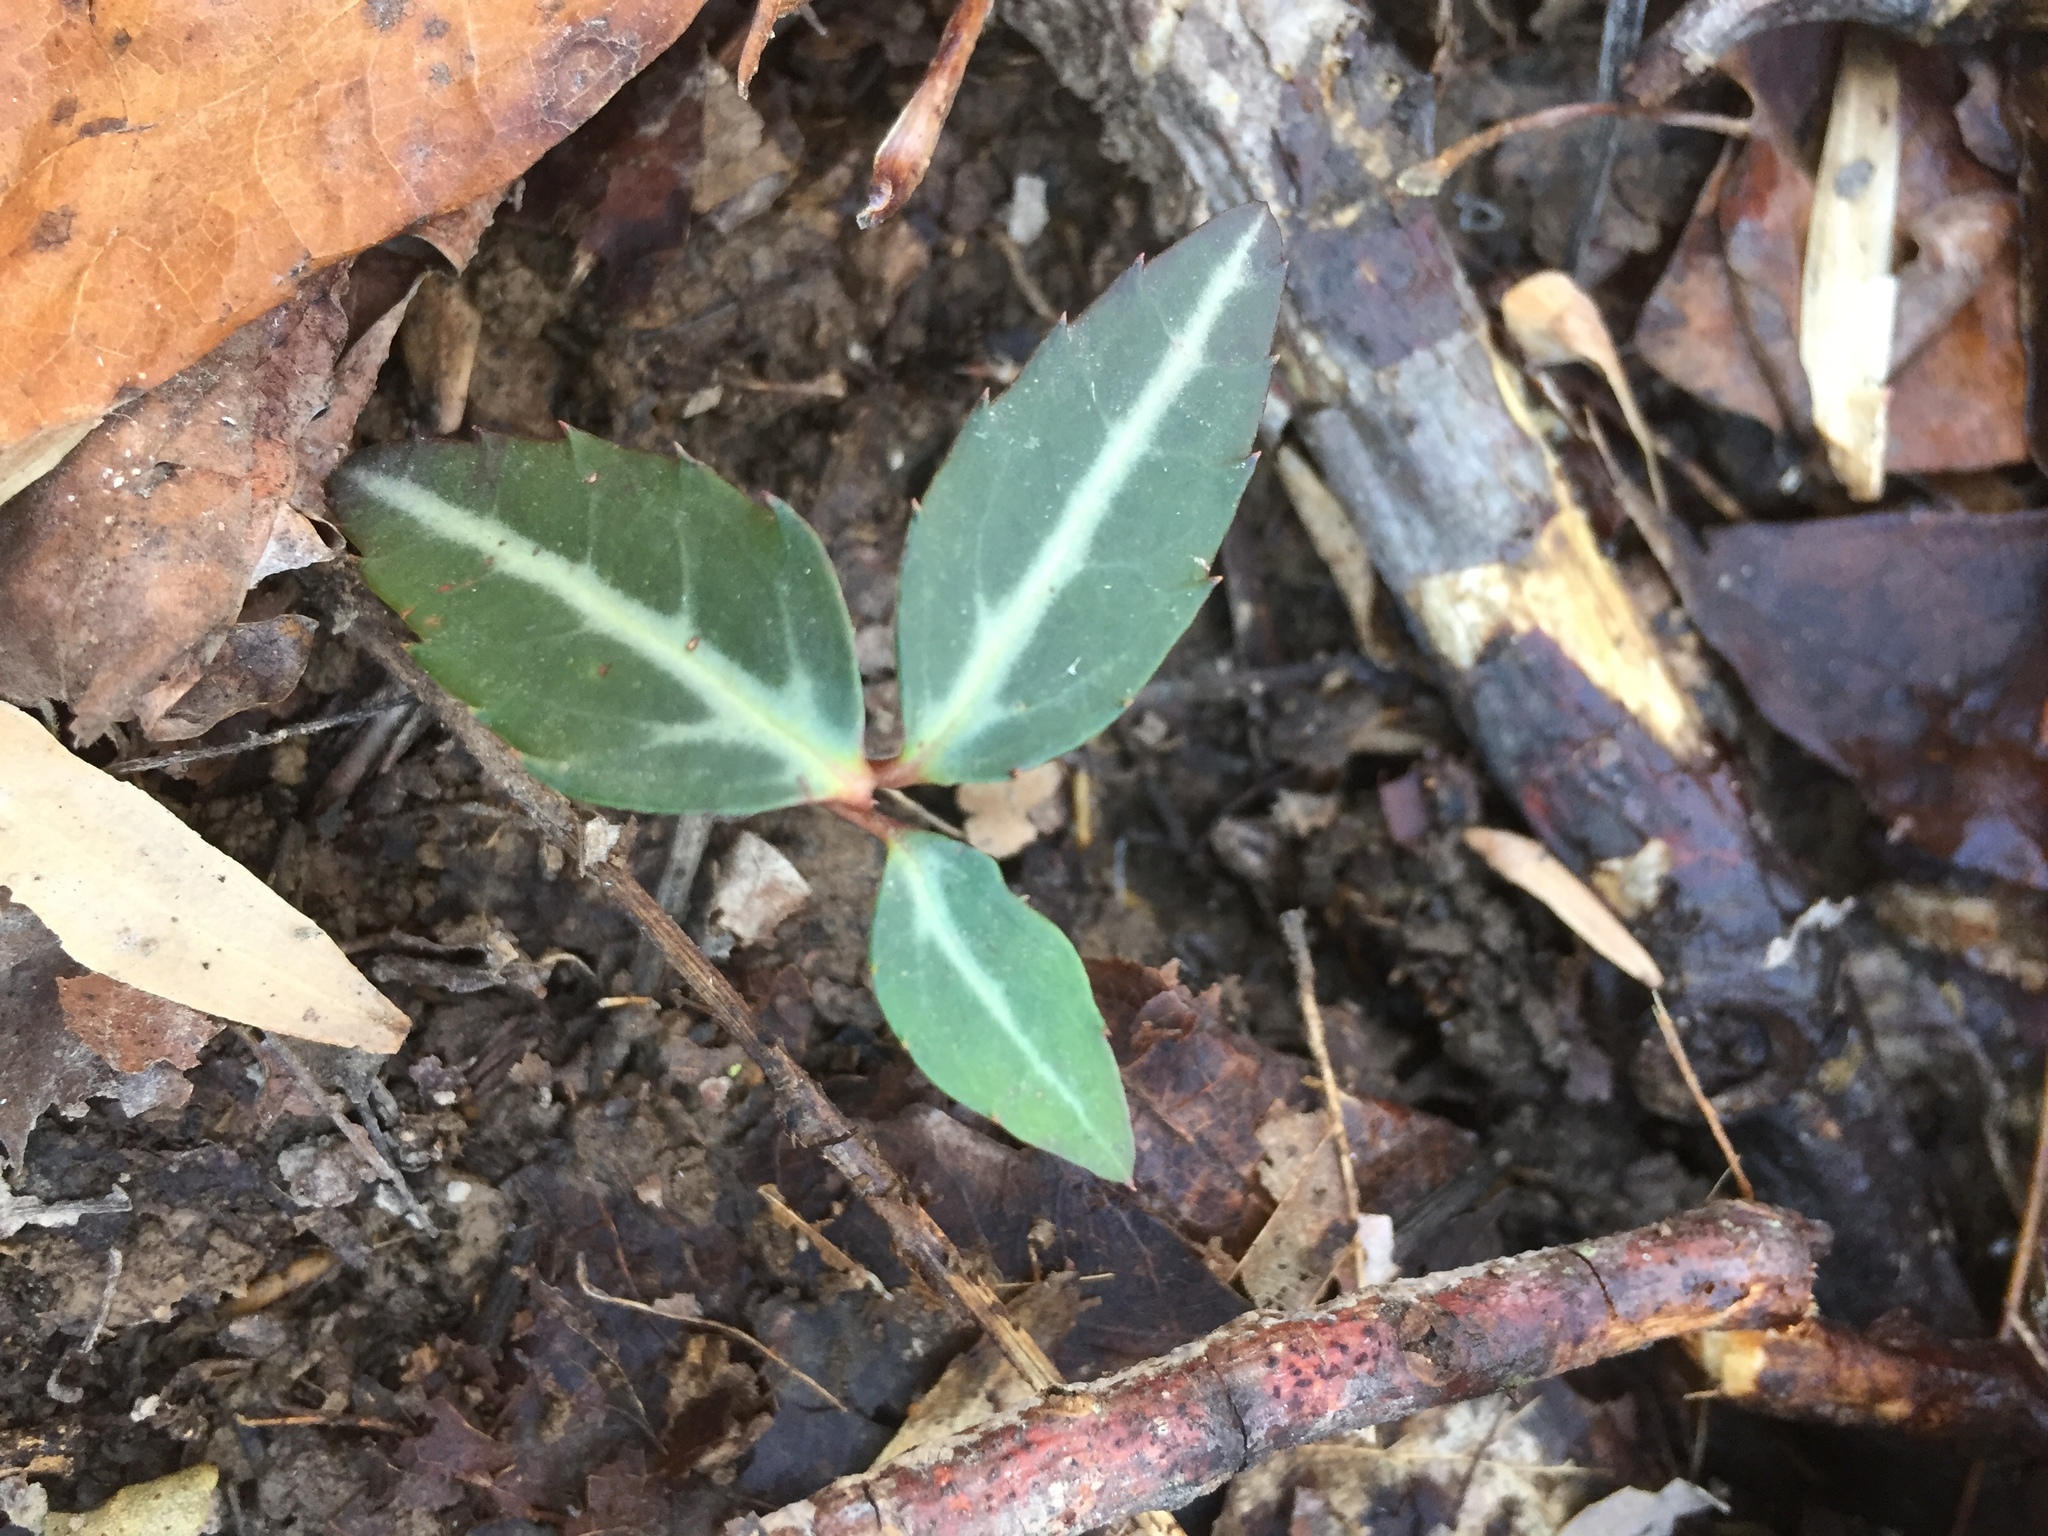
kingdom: Plantae
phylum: Tracheophyta
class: Magnoliopsida
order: Ericales
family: Ericaceae
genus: Chimaphila
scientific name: Chimaphila maculata
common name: Spotted pipsissewa
